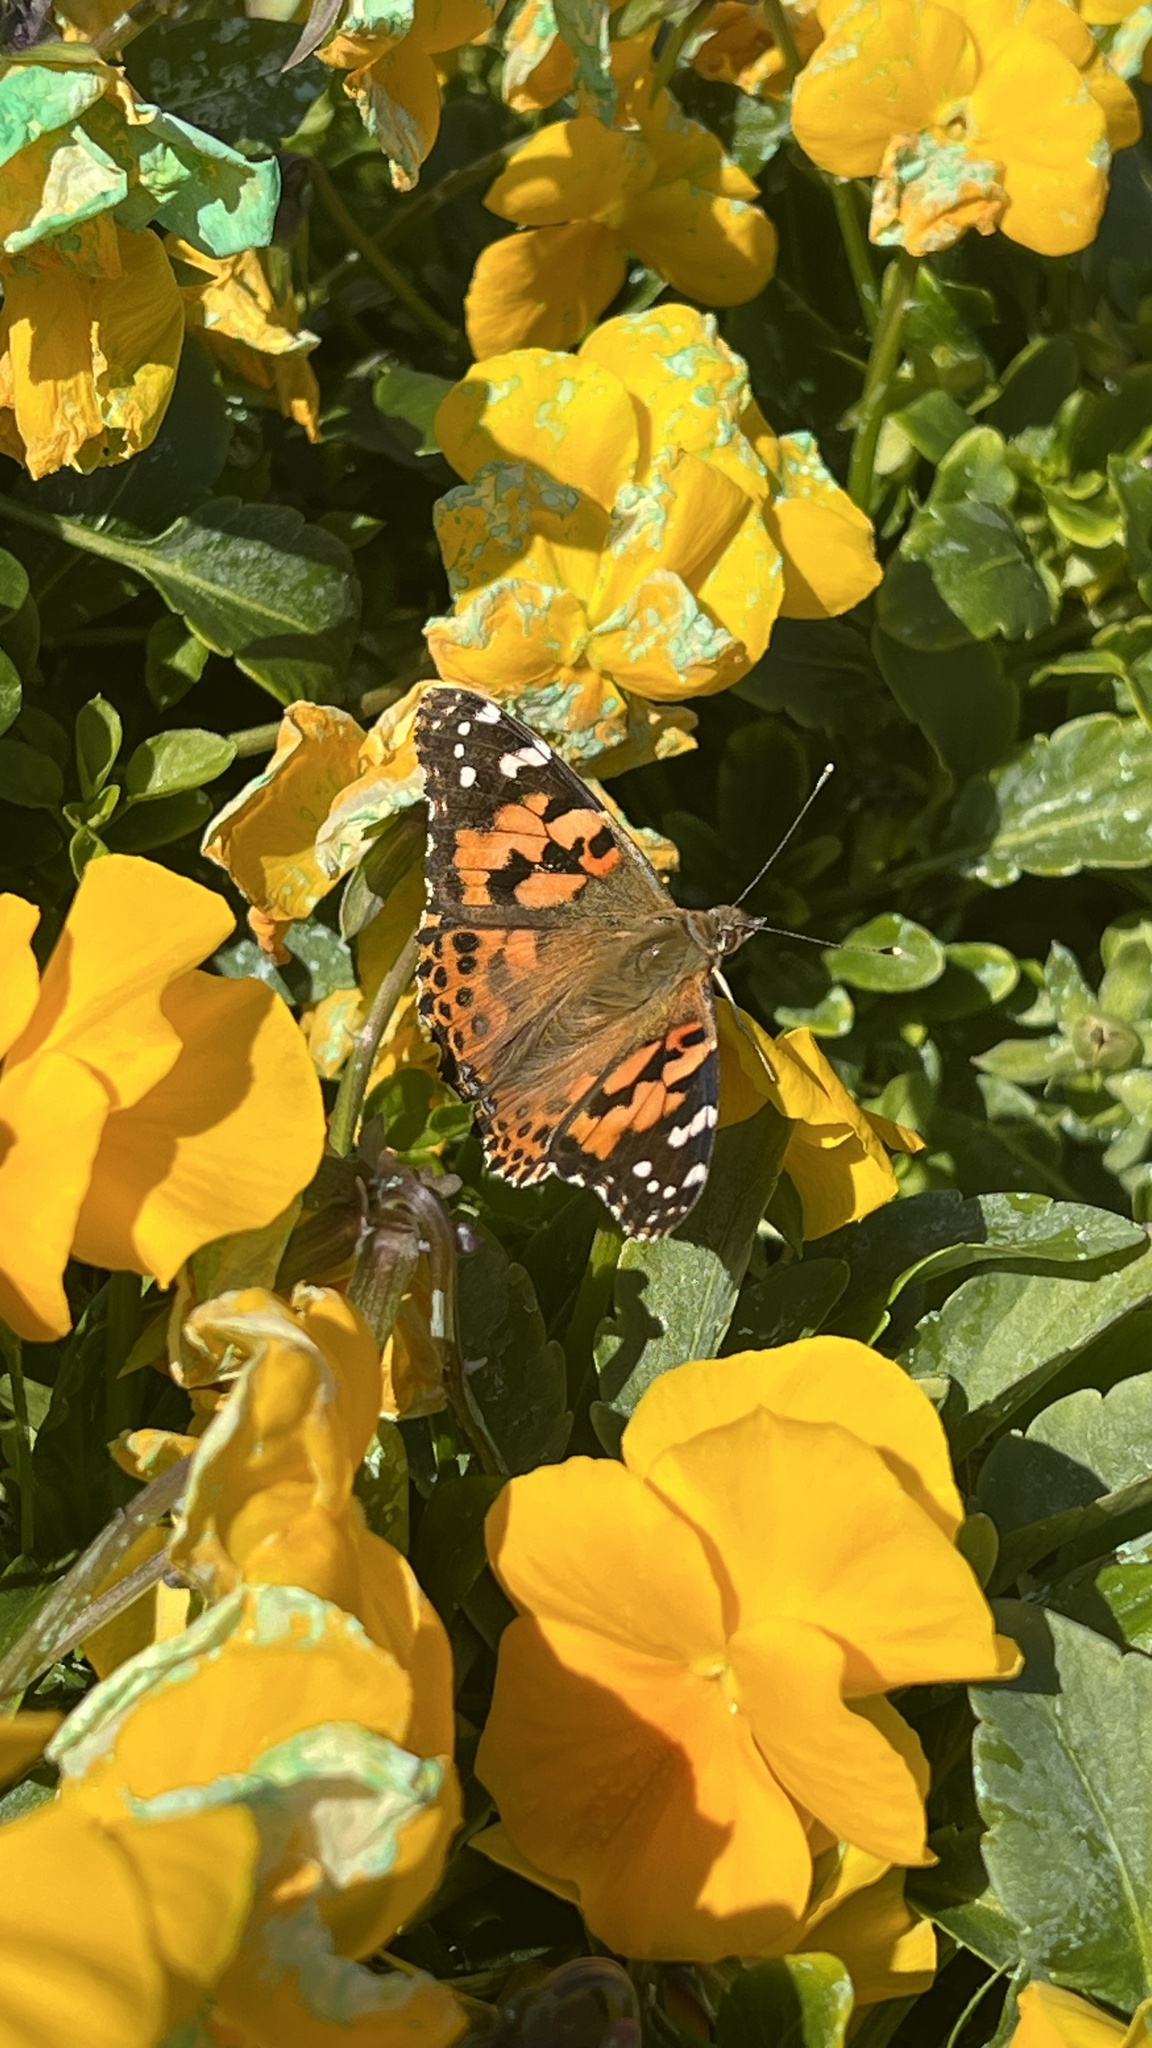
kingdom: Animalia
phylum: Arthropoda
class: Insecta
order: Lepidoptera
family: Nymphalidae
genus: Vanessa
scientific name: Vanessa cardui
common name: Painted lady
